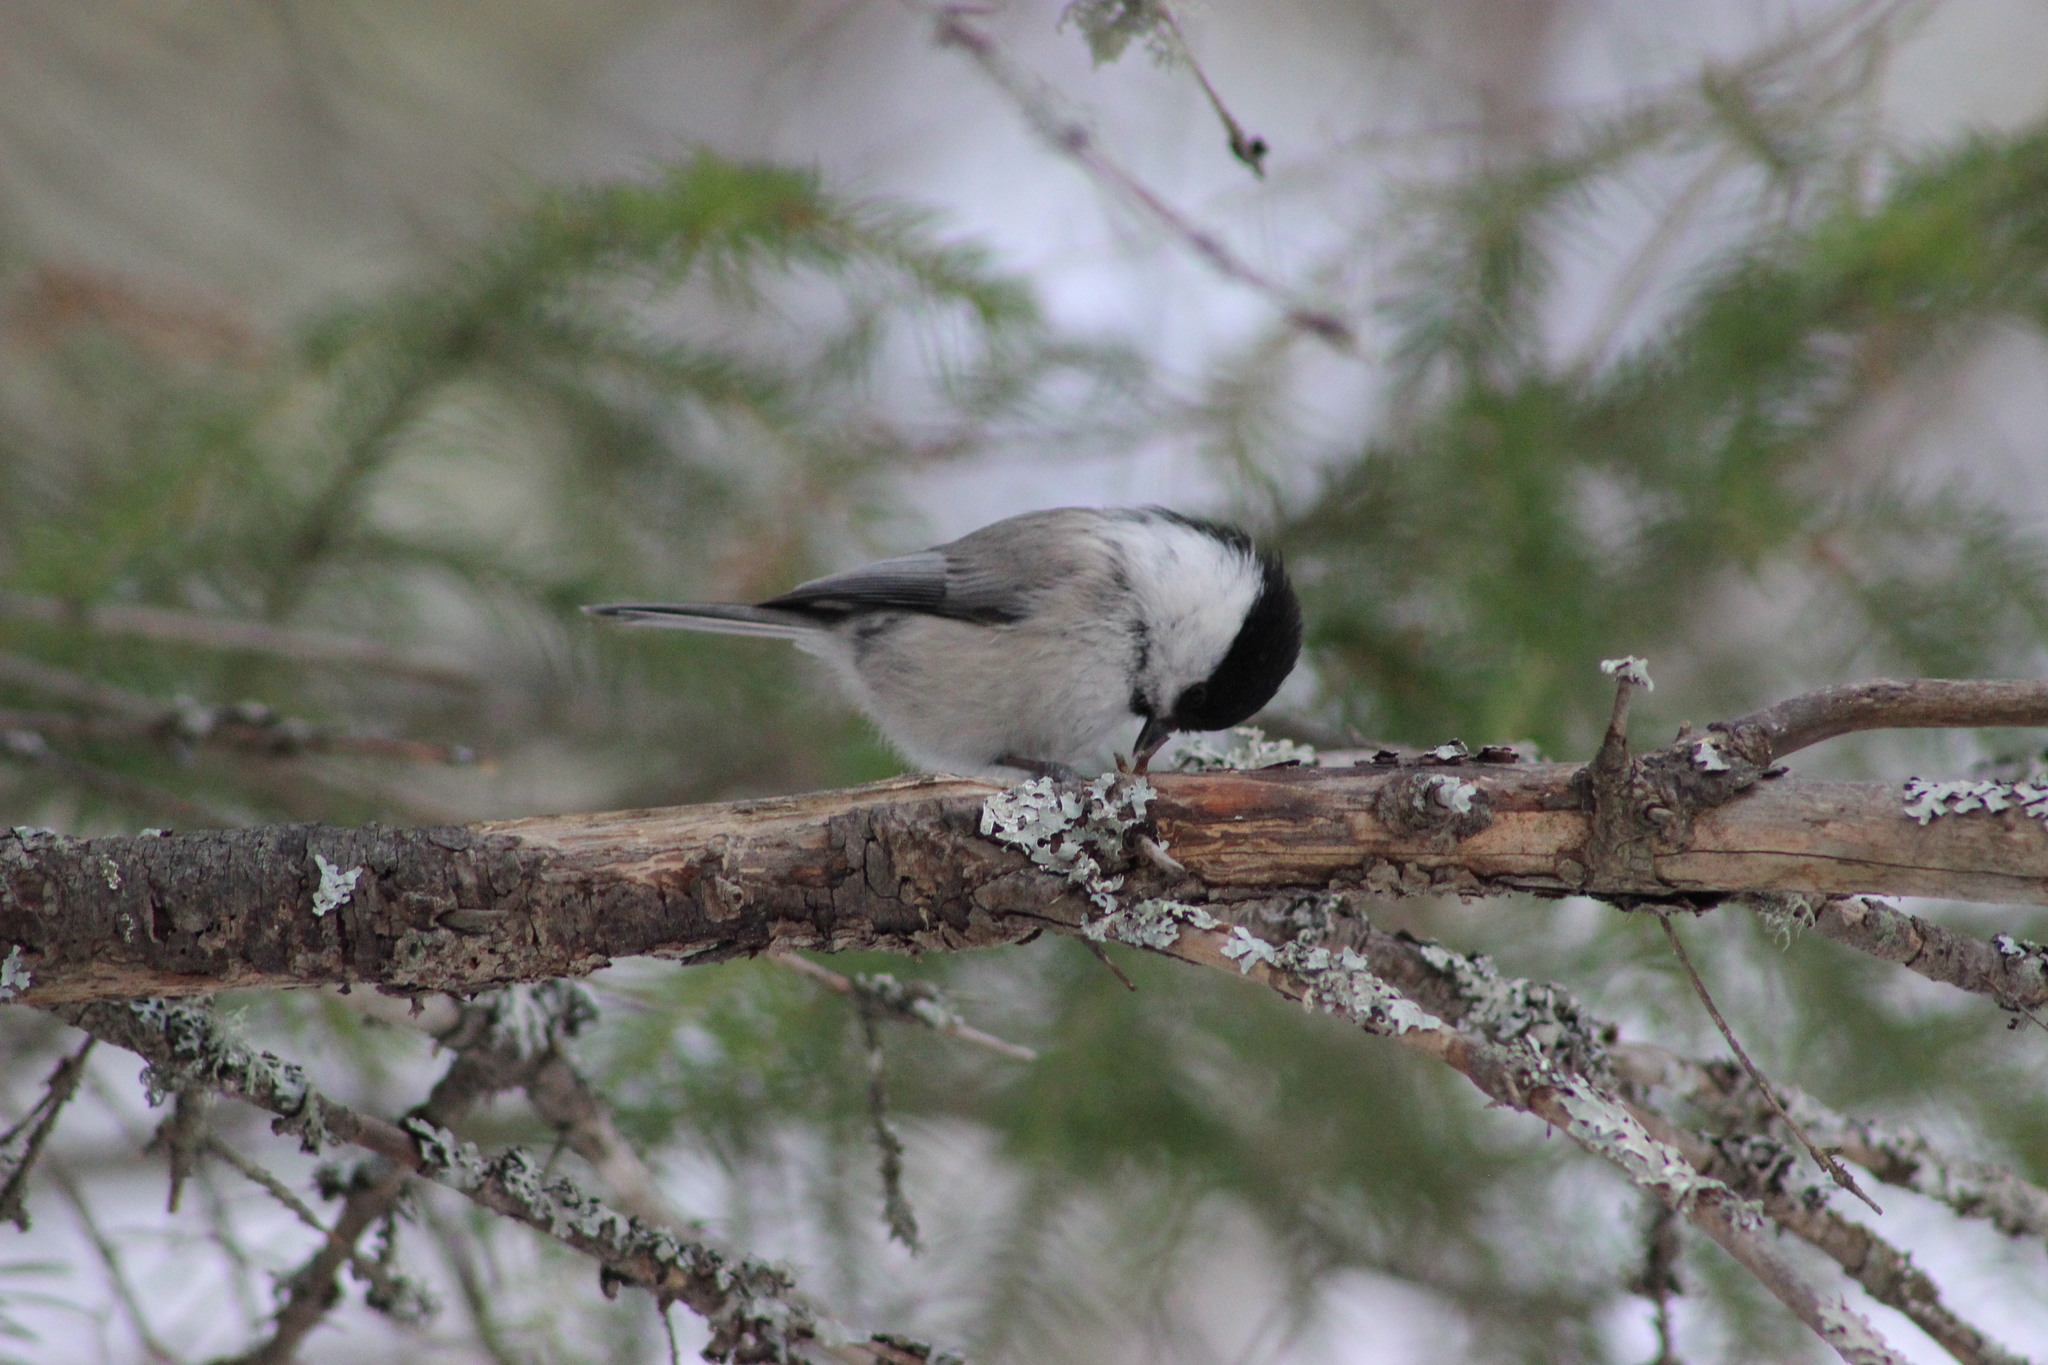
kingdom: Animalia
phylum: Chordata
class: Aves
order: Passeriformes
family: Paridae
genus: Poecile
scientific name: Poecile montanus
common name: Willow tit
